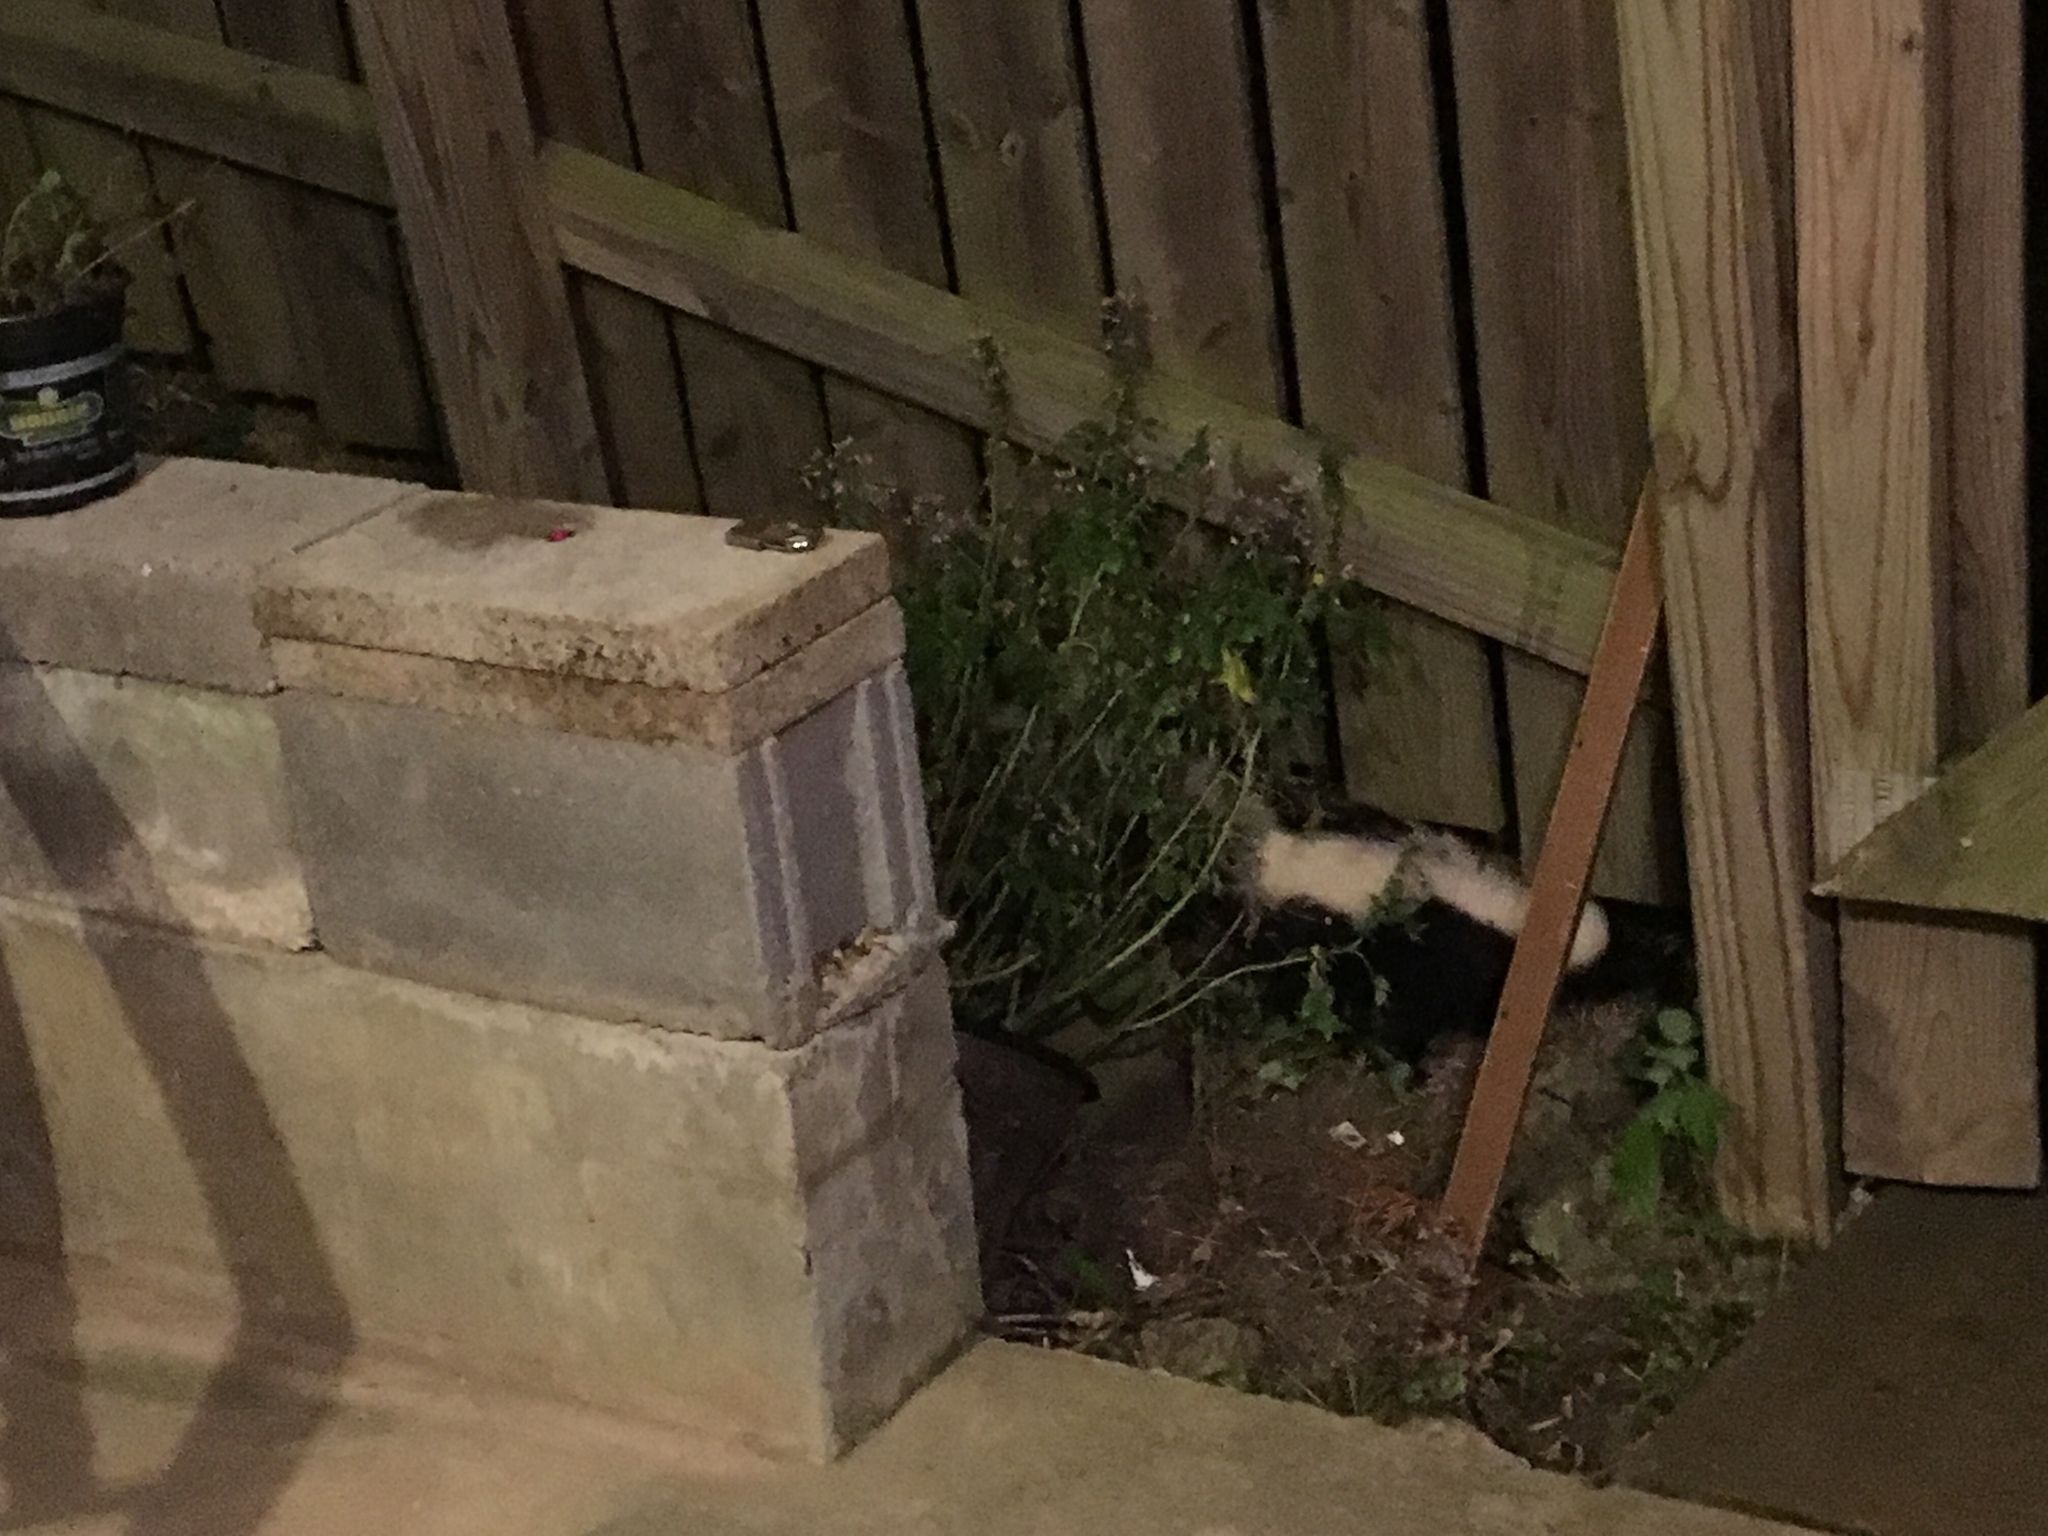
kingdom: Animalia
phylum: Chordata
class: Mammalia
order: Carnivora
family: Mephitidae
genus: Mephitis
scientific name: Mephitis mephitis
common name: Striped skunk
